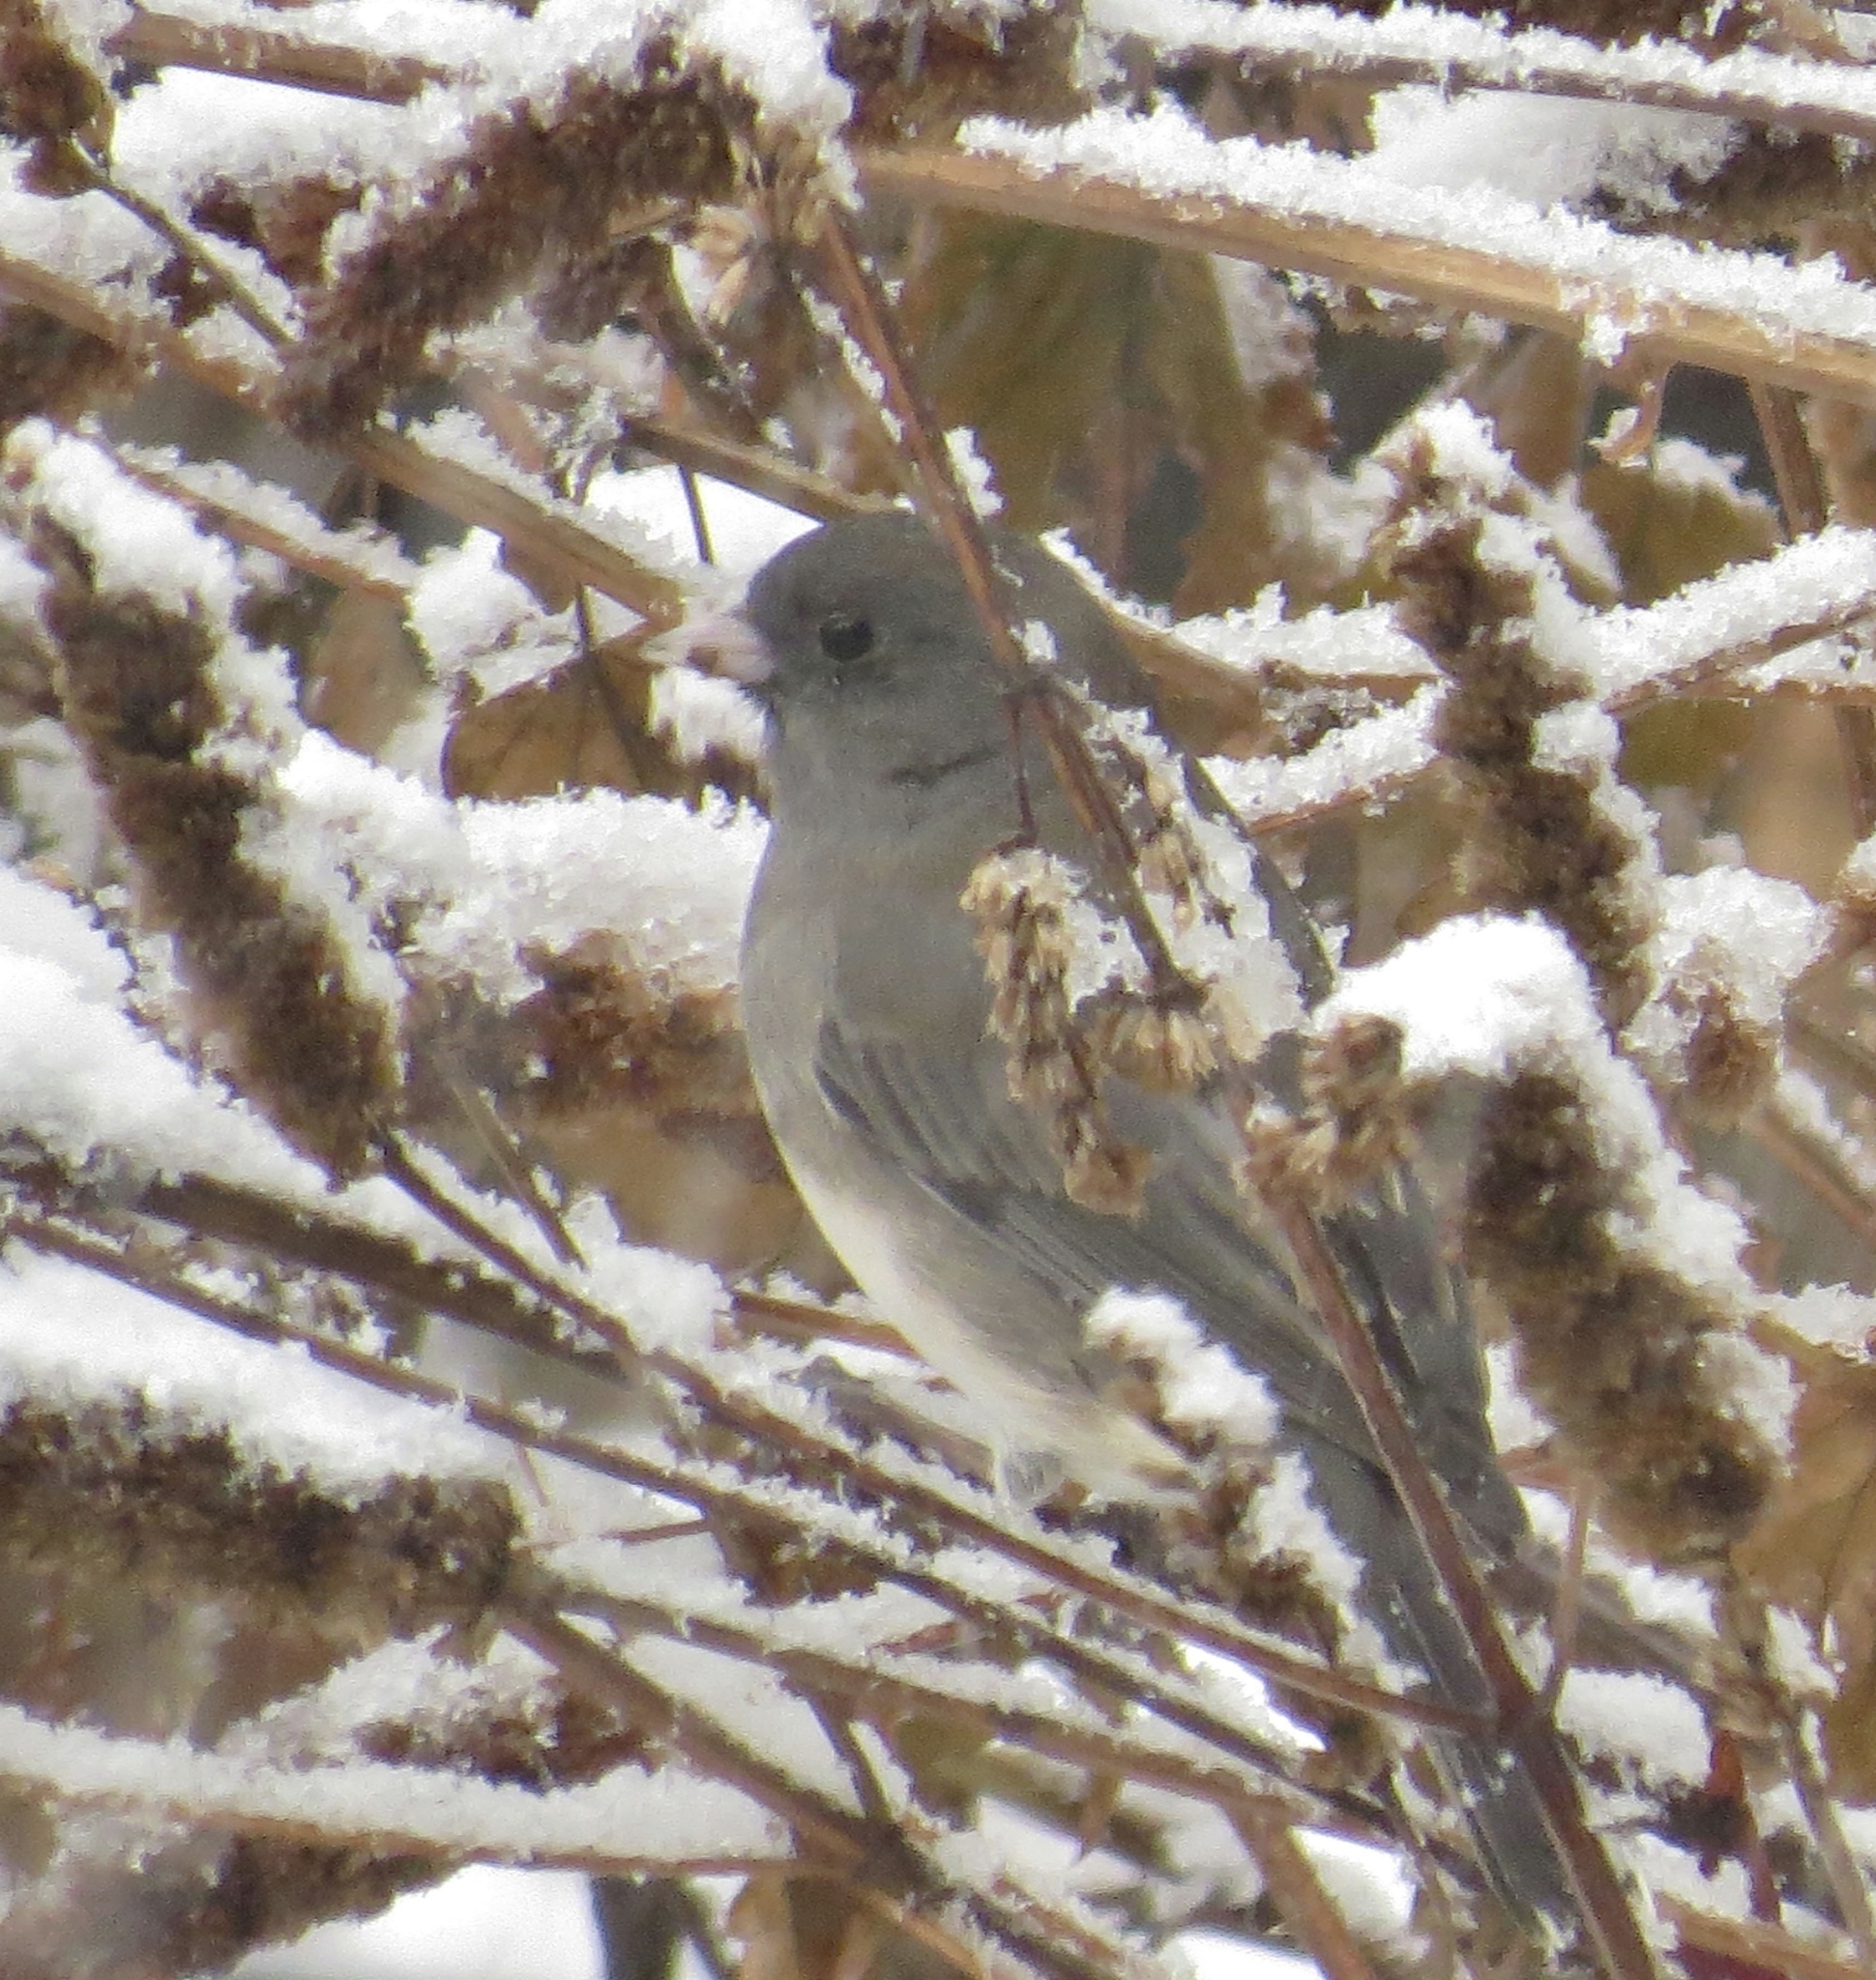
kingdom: Animalia
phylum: Chordata
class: Aves
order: Passeriformes
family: Passerellidae
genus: Junco
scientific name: Junco hyemalis
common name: Dark-eyed junco
